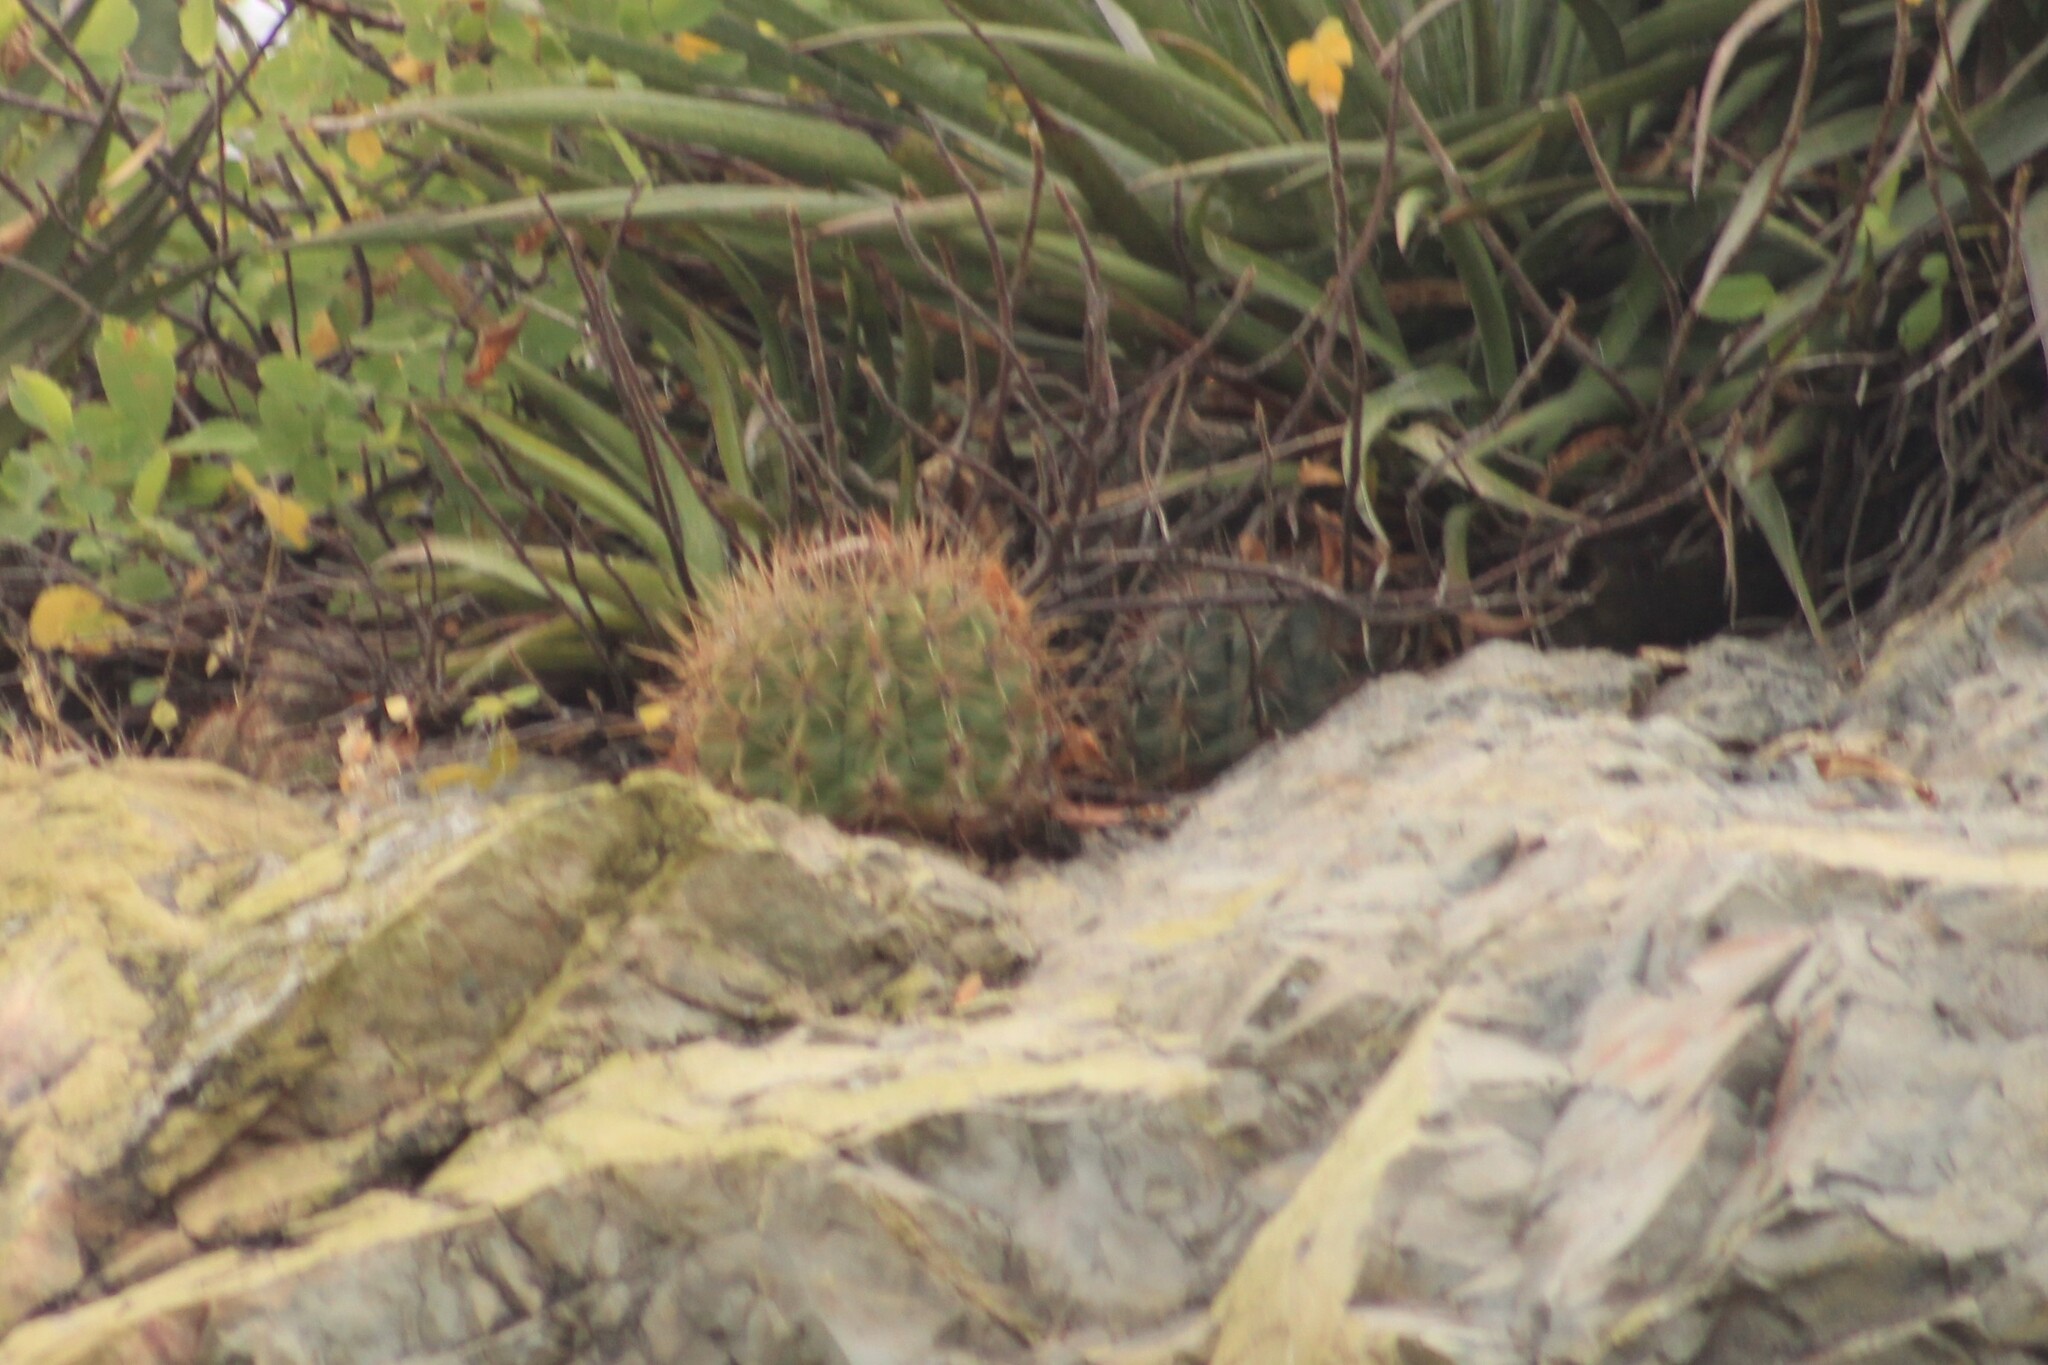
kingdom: Plantae
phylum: Tracheophyta
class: Magnoliopsida
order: Caryophyllales
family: Cactaceae
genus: Melocactus
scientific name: Melocactus curvispinus
